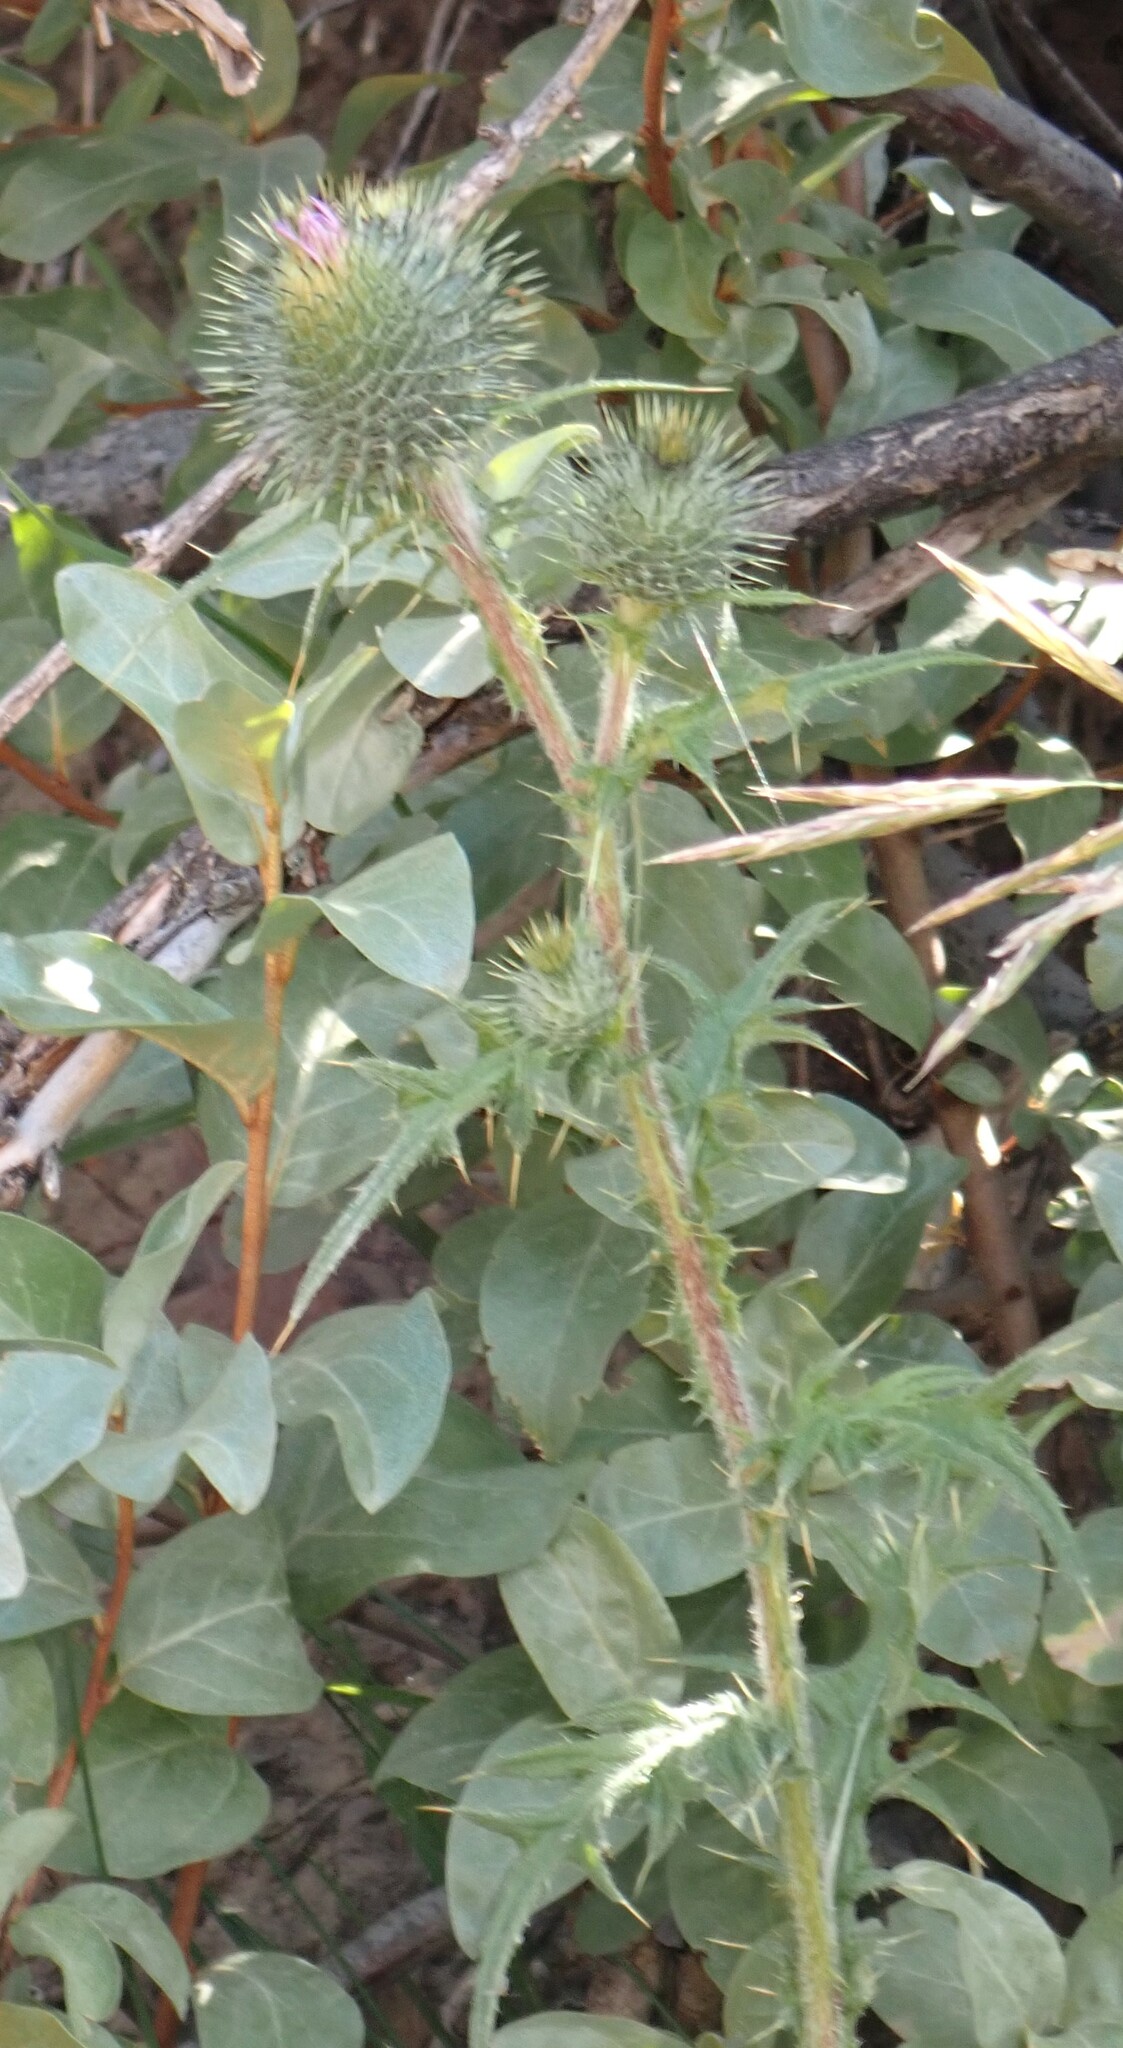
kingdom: Plantae
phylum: Tracheophyta
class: Magnoliopsida
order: Asterales
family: Asteraceae
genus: Cirsium
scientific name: Cirsium vulgare
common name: Bull thistle
